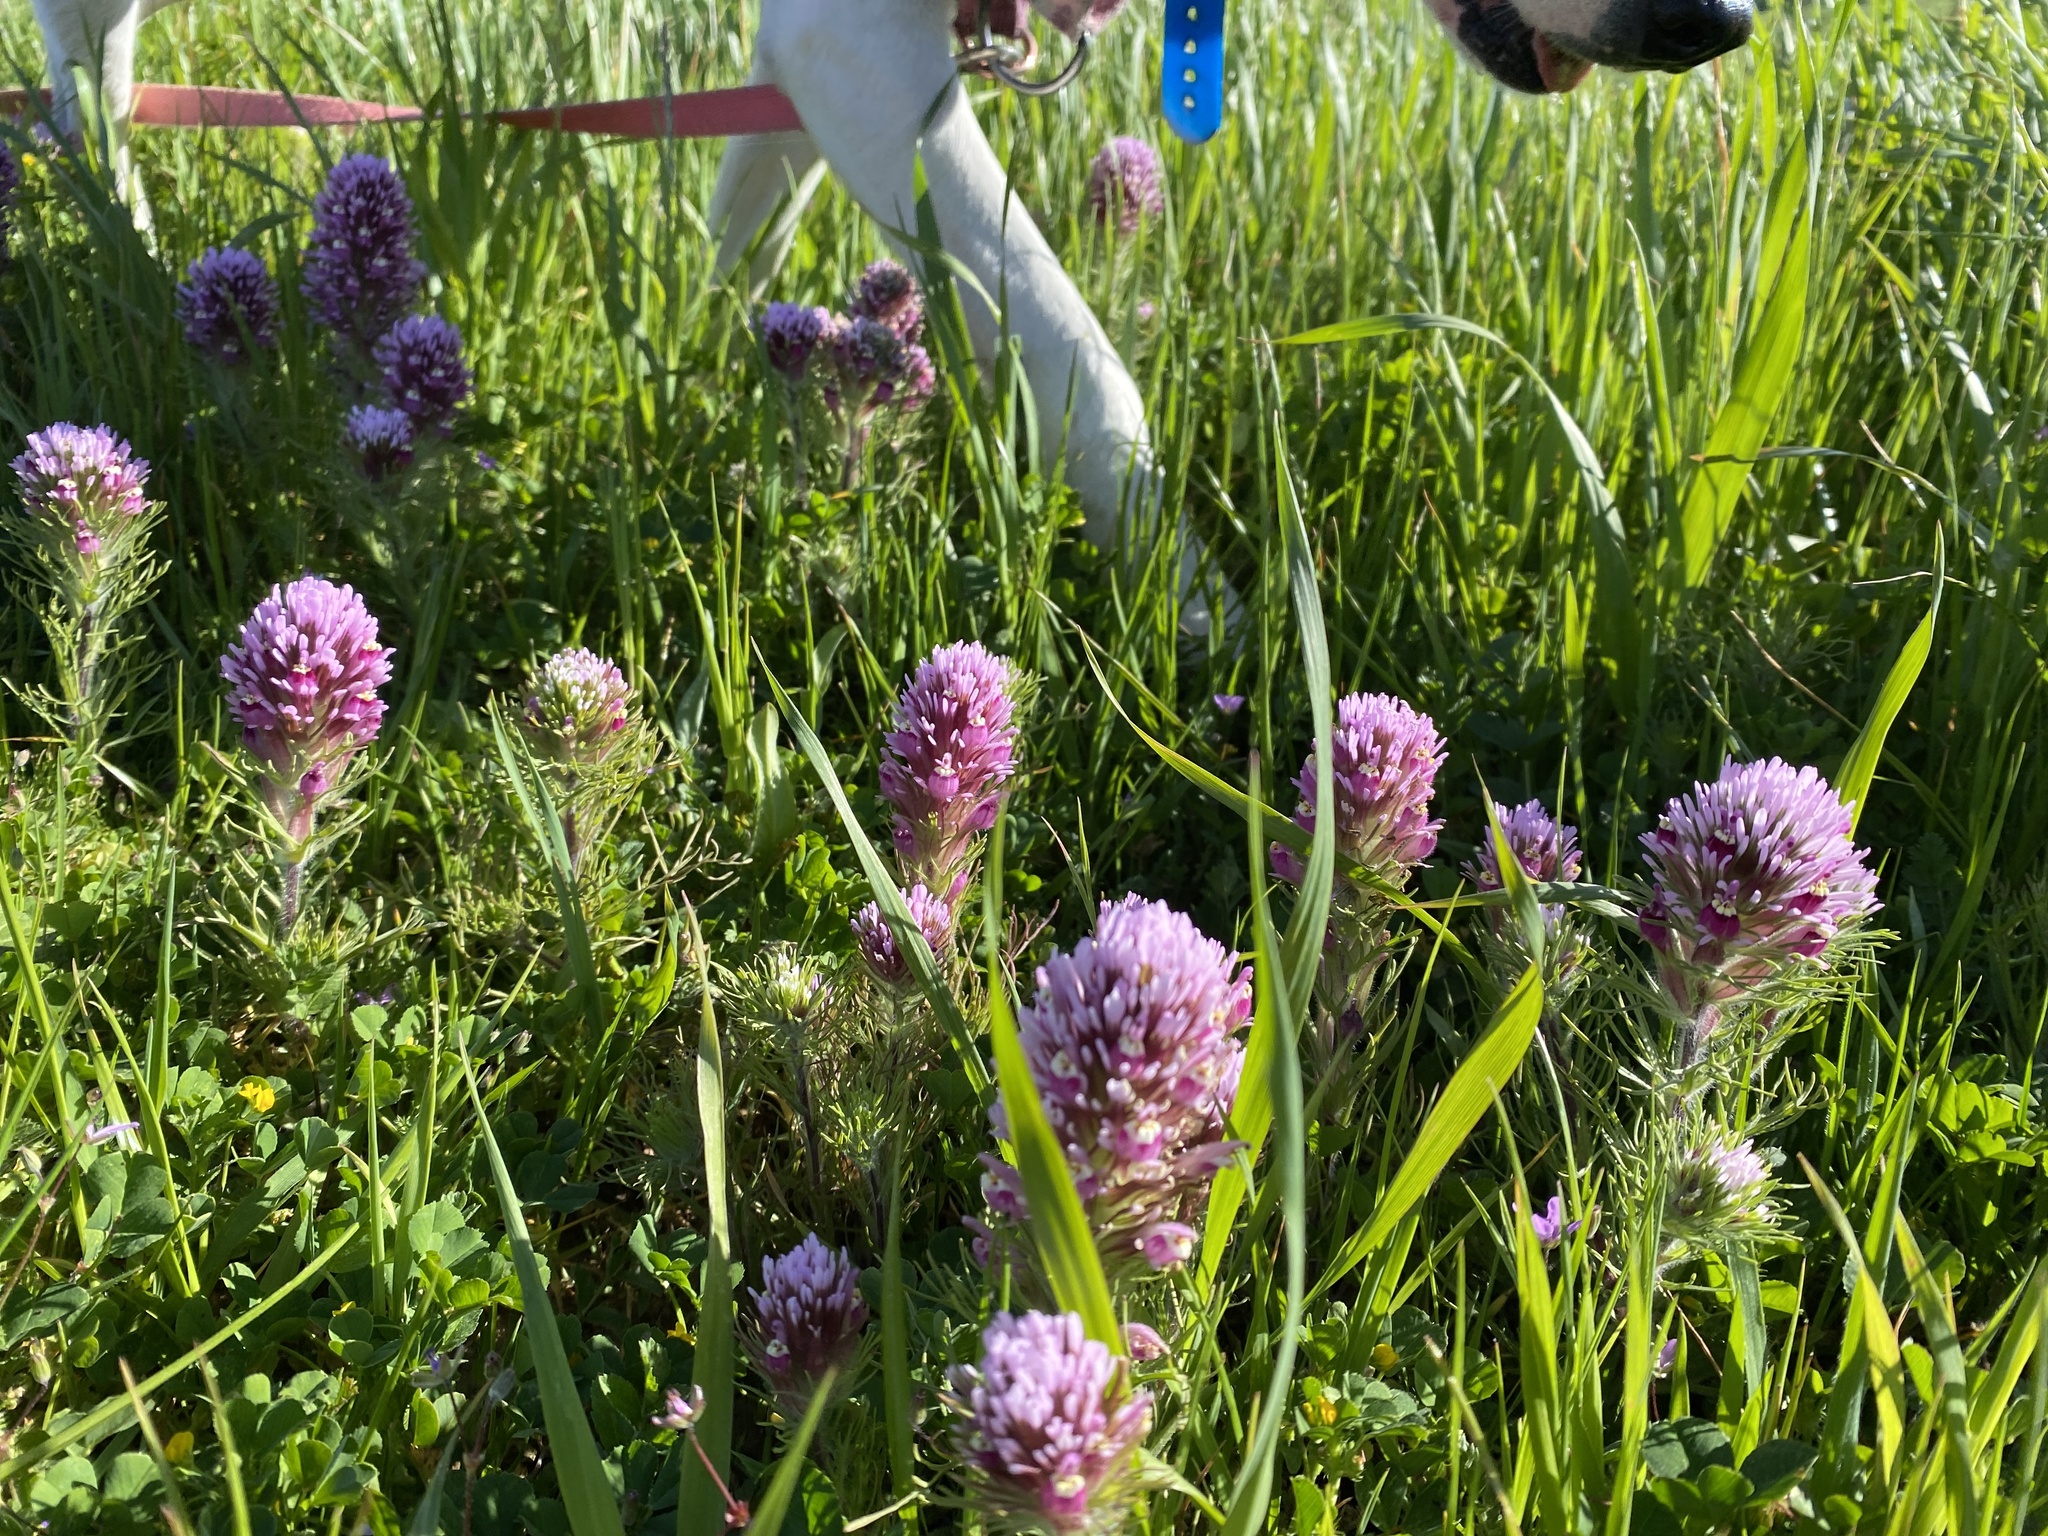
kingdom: Plantae
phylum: Tracheophyta
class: Magnoliopsida
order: Lamiales
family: Orobanchaceae
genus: Castilleja
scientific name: Castilleja exserta
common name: Purple owl-clover
